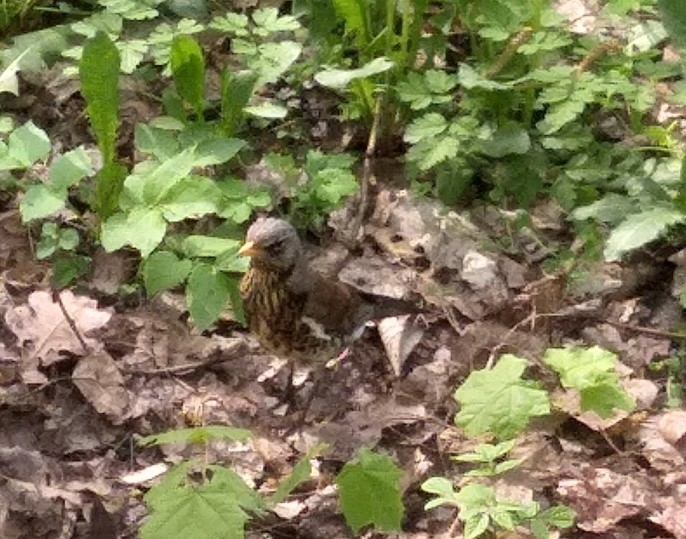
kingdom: Animalia
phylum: Chordata
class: Aves
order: Passeriformes
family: Turdidae
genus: Turdus
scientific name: Turdus pilaris
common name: Fieldfare
